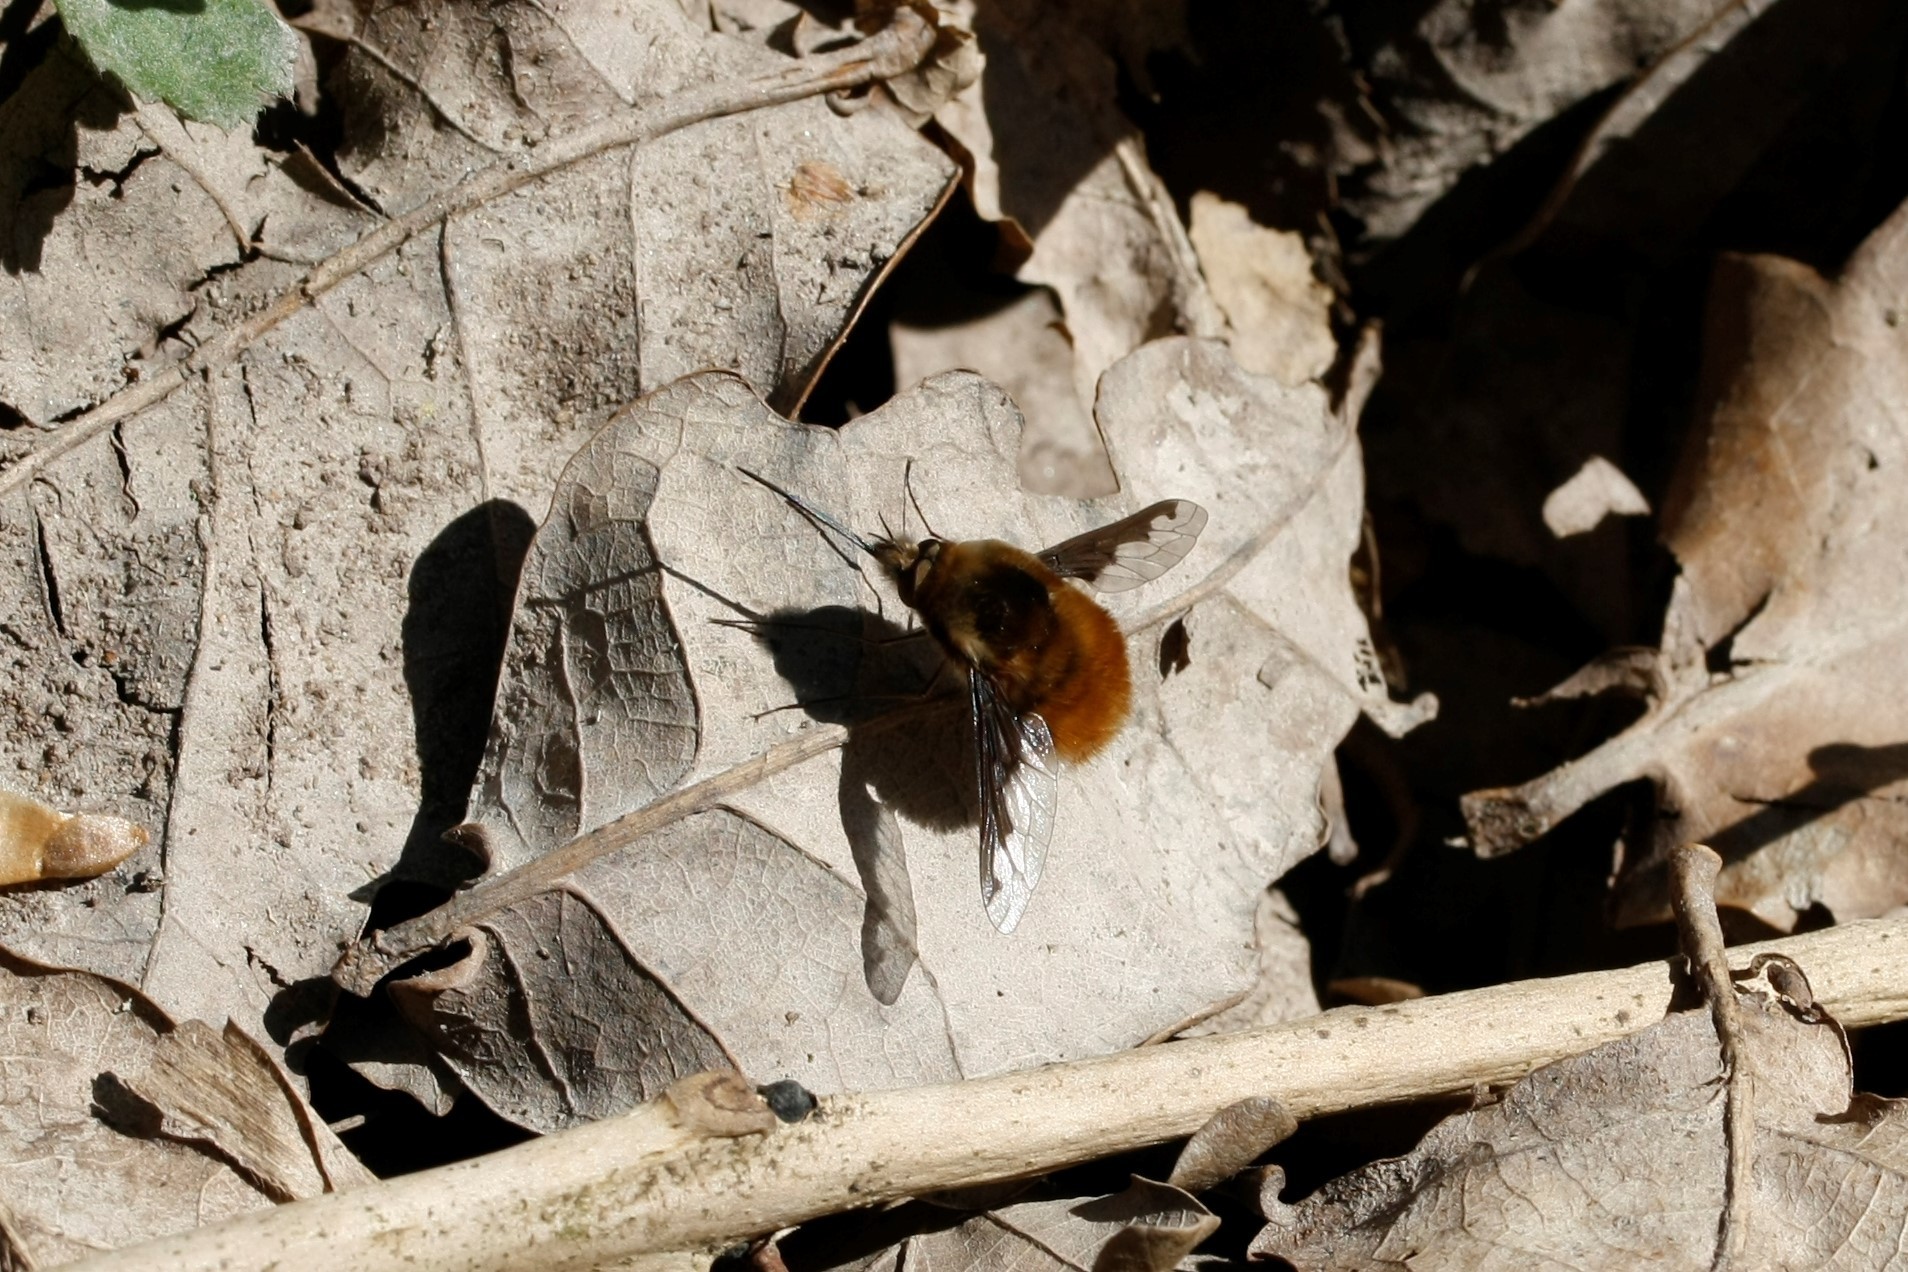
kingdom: Animalia
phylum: Arthropoda
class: Insecta
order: Diptera
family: Bombyliidae
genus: Bombylius
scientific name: Bombylius major
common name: Bee fly
